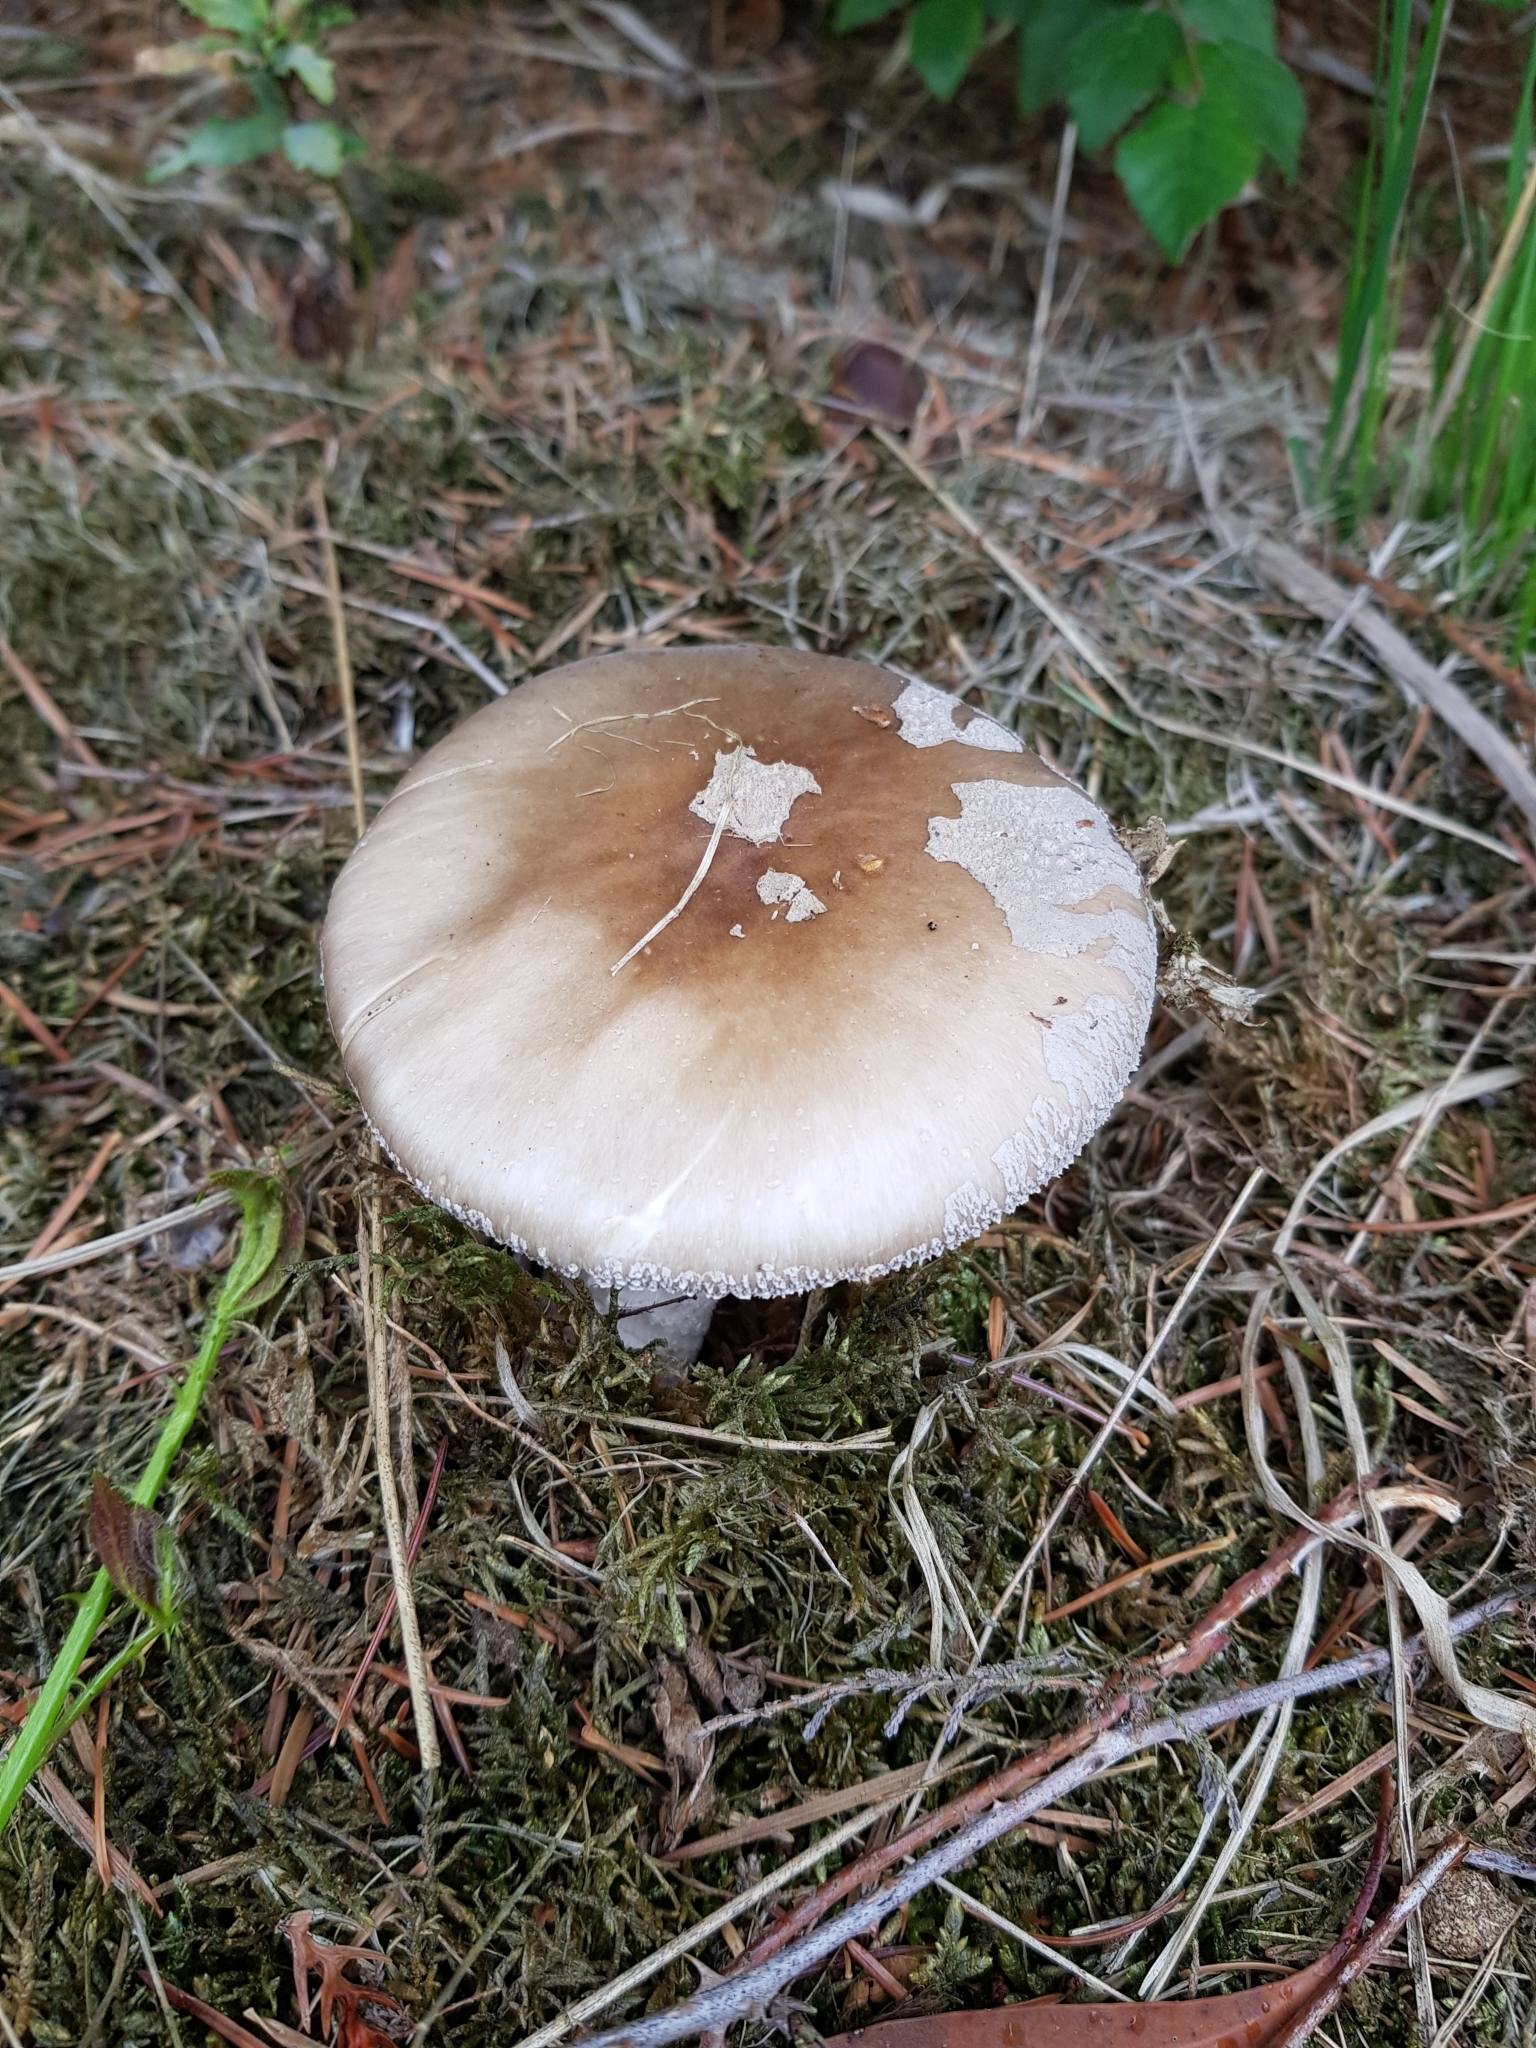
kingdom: Fungi
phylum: Basidiomycota
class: Agaricomycetes
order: Agaricales
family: Amanitaceae
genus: Amanita
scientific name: Amanita excelsa
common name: European false blusher
